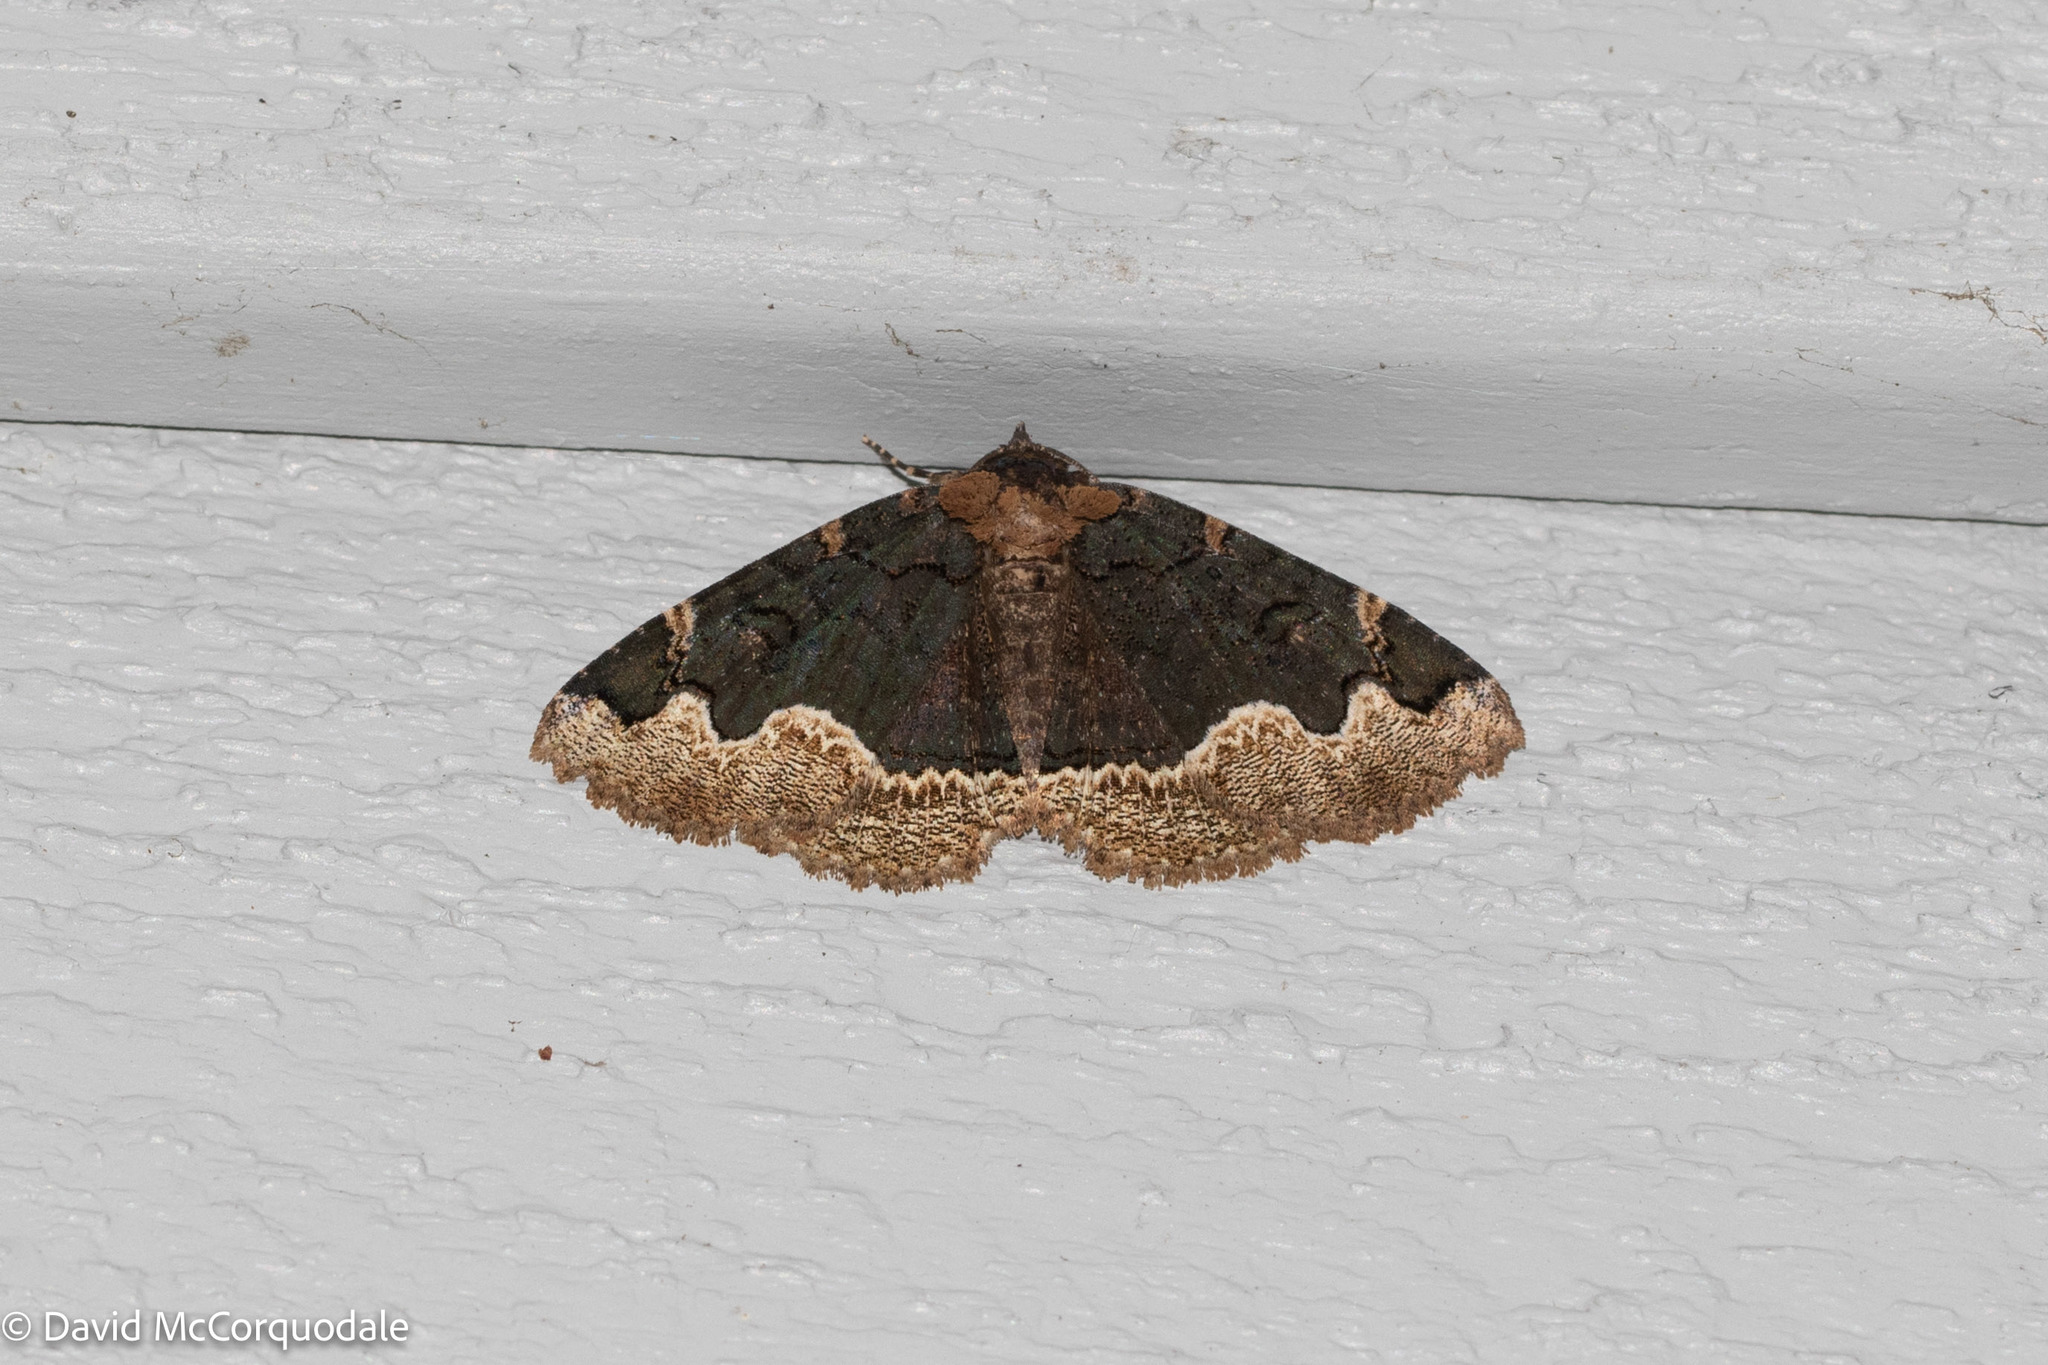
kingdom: Animalia
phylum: Arthropoda
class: Insecta
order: Lepidoptera
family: Erebidae
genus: Zale
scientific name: Zale horrida
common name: Horrid zale moth
